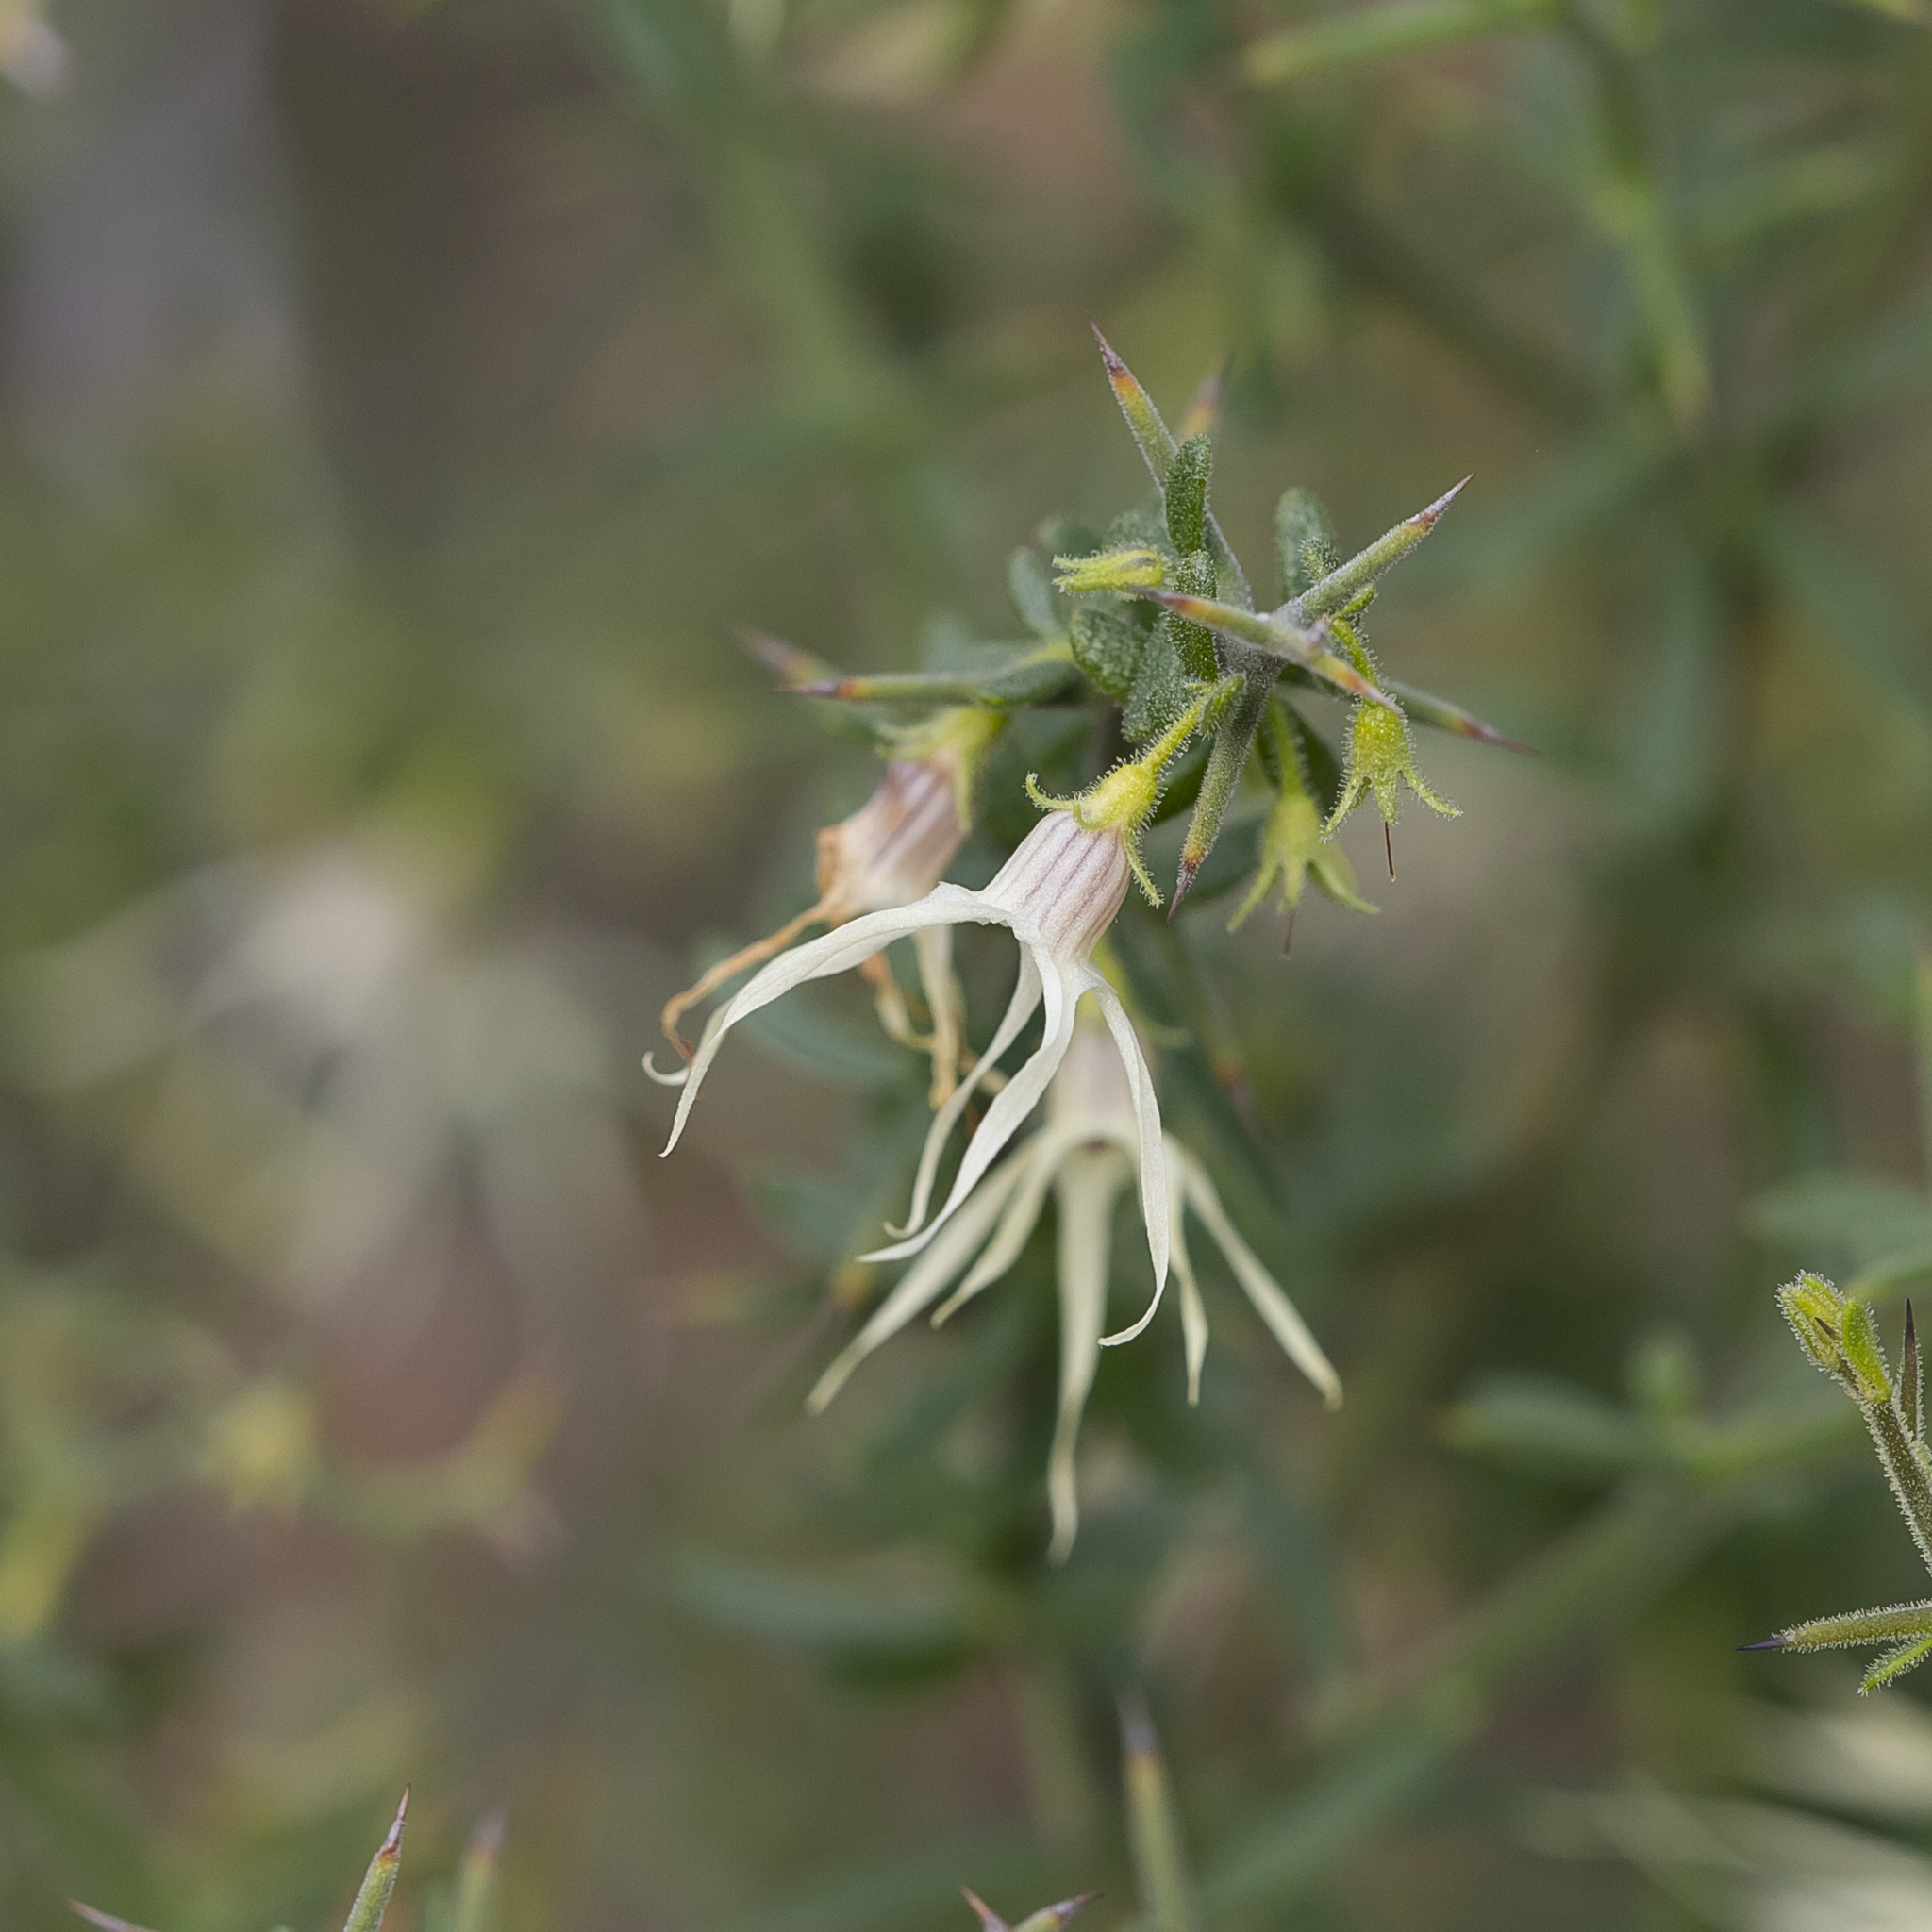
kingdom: Plantae
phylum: Tracheophyta
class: Magnoliopsida
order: Solanales
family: Solanaceae
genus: Anthocercis
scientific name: Anthocercis anisantha
